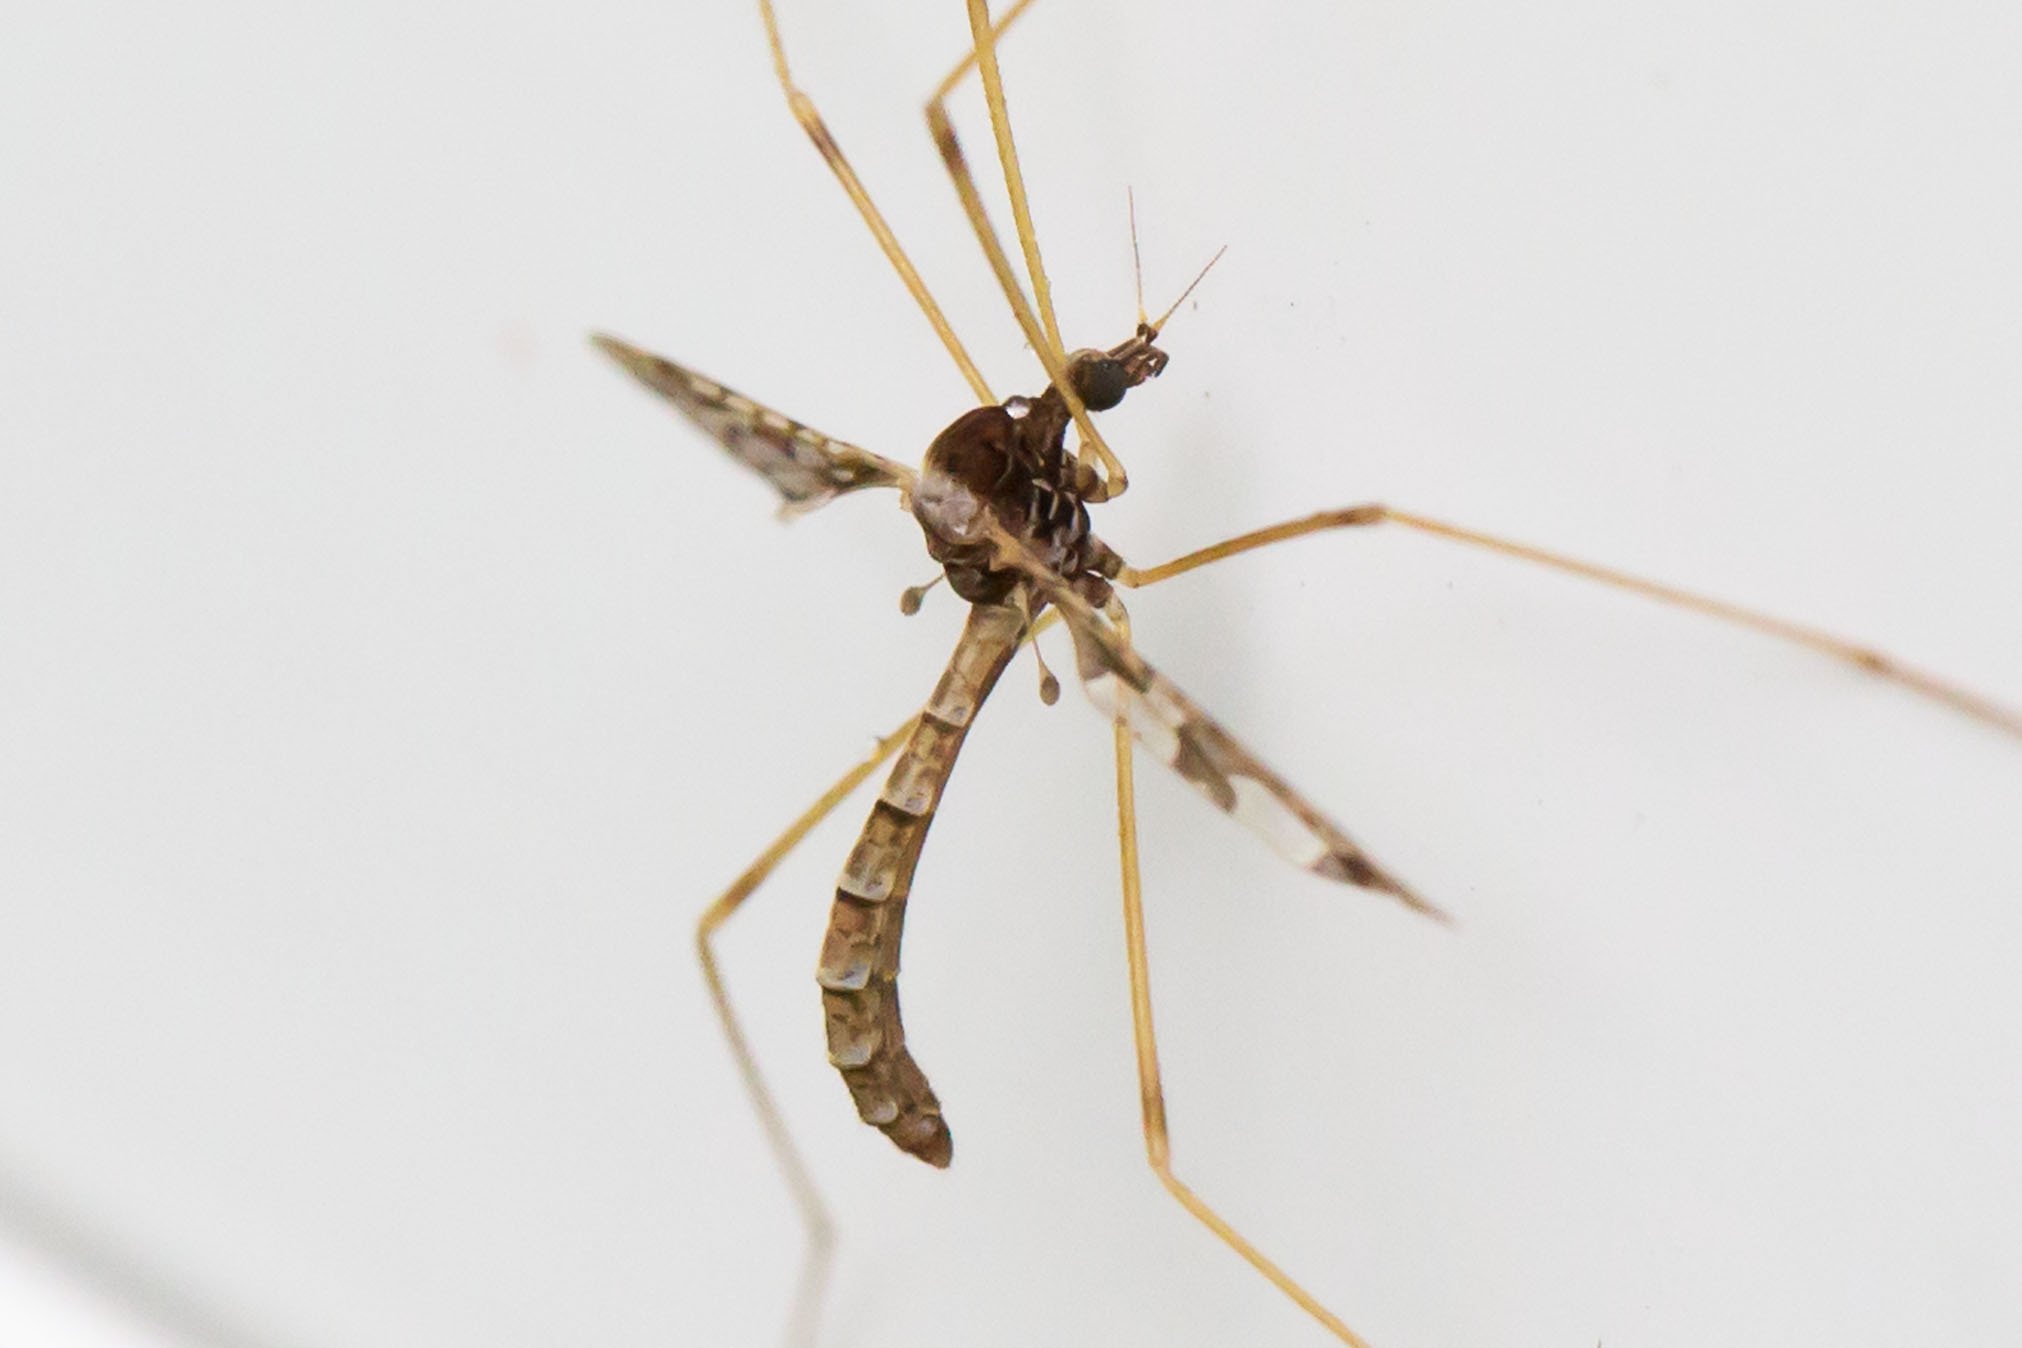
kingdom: Animalia
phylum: Arthropoda
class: Insecta
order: Diptera
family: Limoniidae
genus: Epiphragma
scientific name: Epiphragma solatrix
